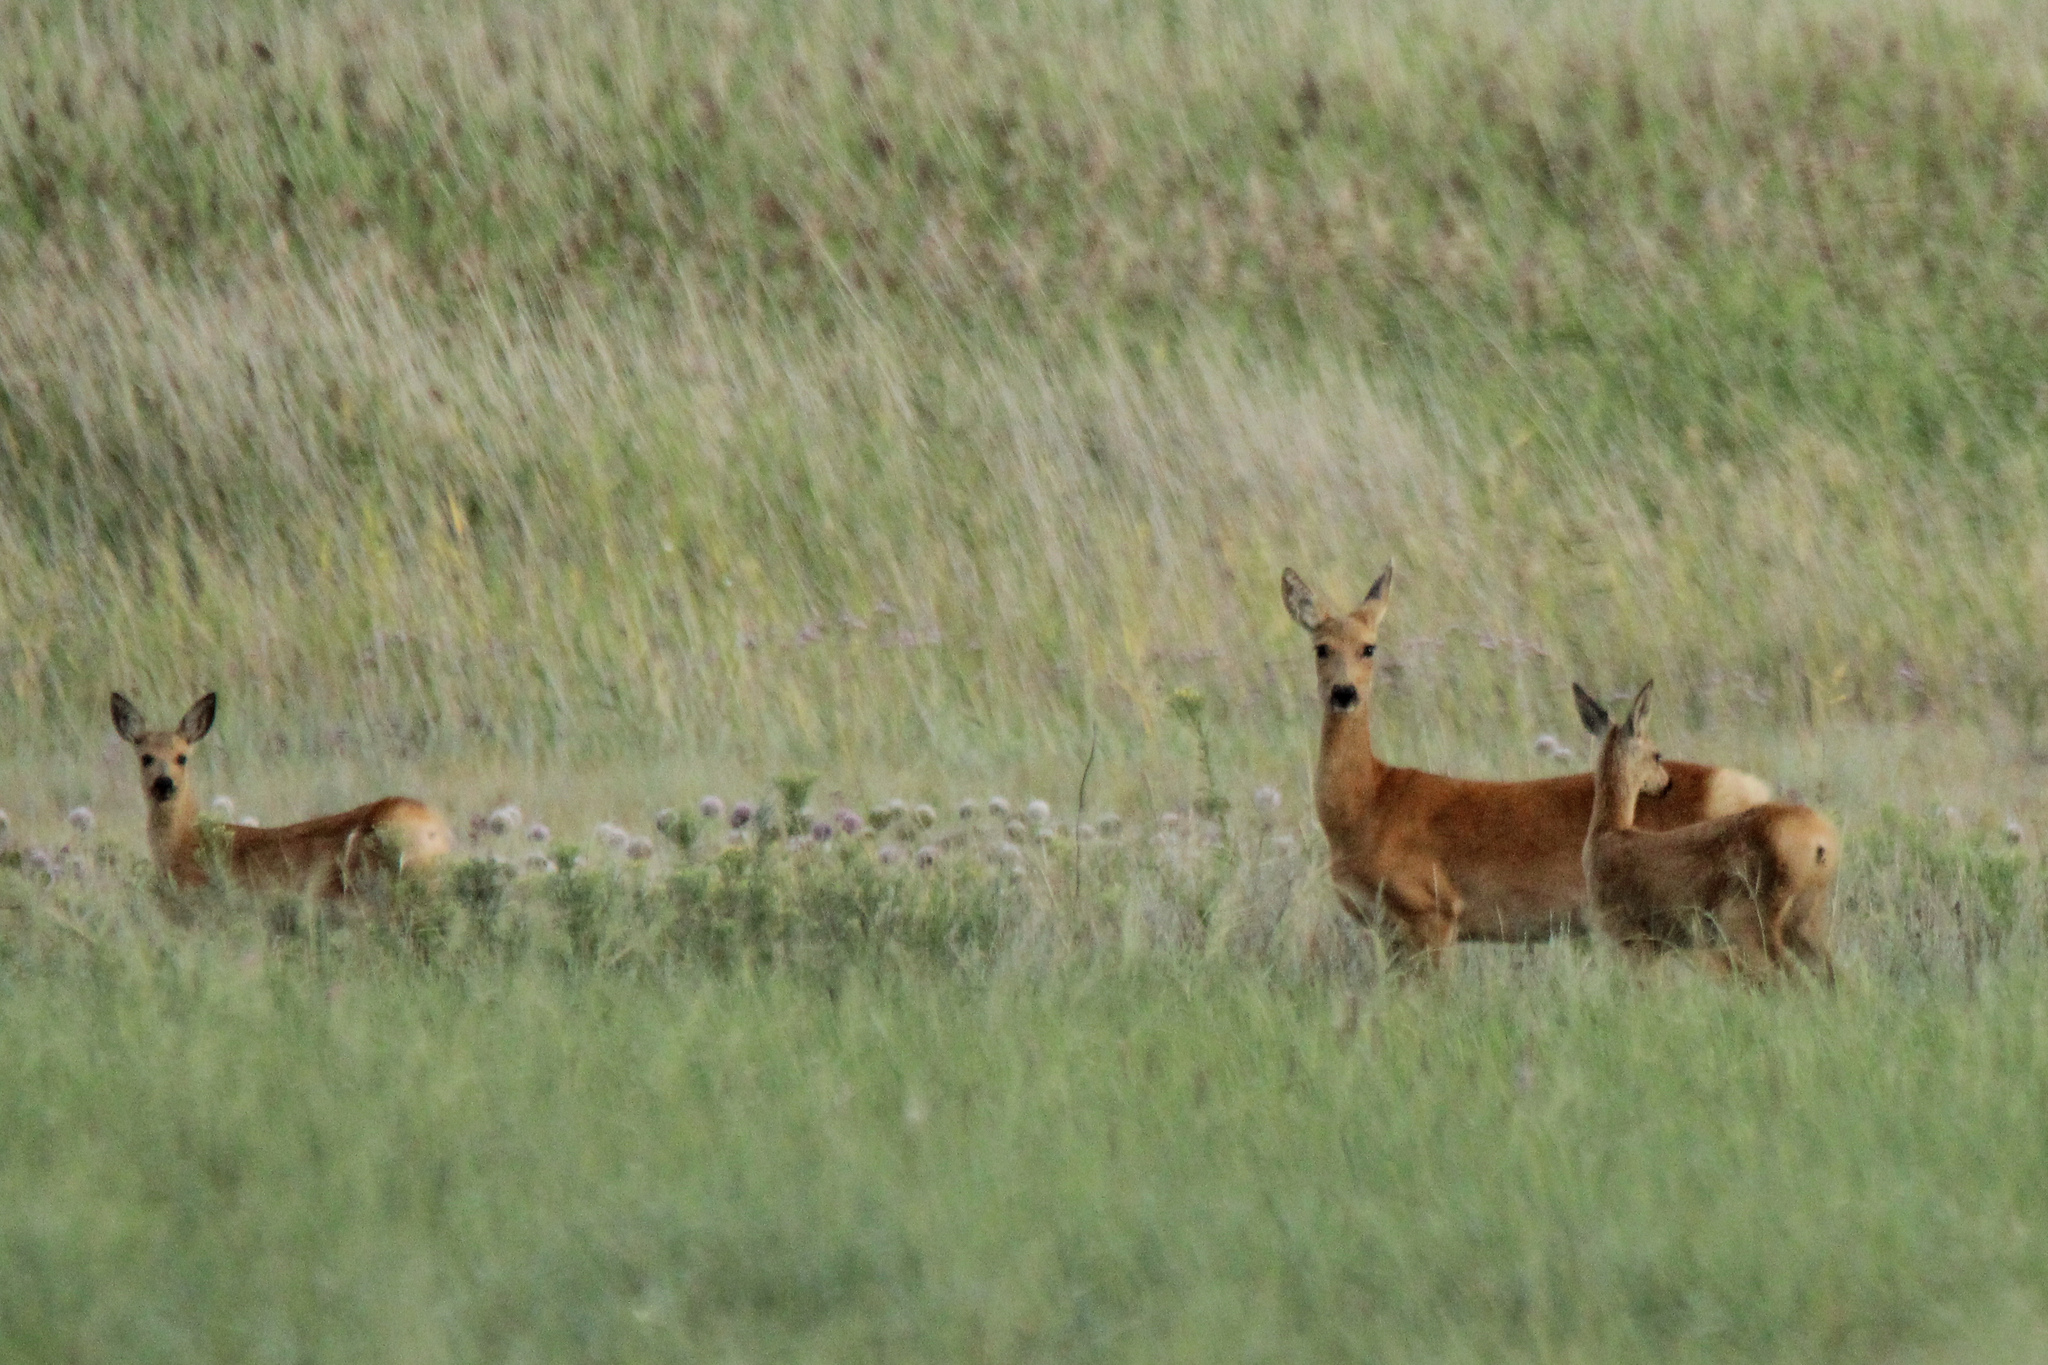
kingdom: Animalia
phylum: Chordata
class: Mammalia
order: Artiodactyla
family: Cervidae
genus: Capreolus
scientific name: Capreolus pygargus
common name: Siberian roe
